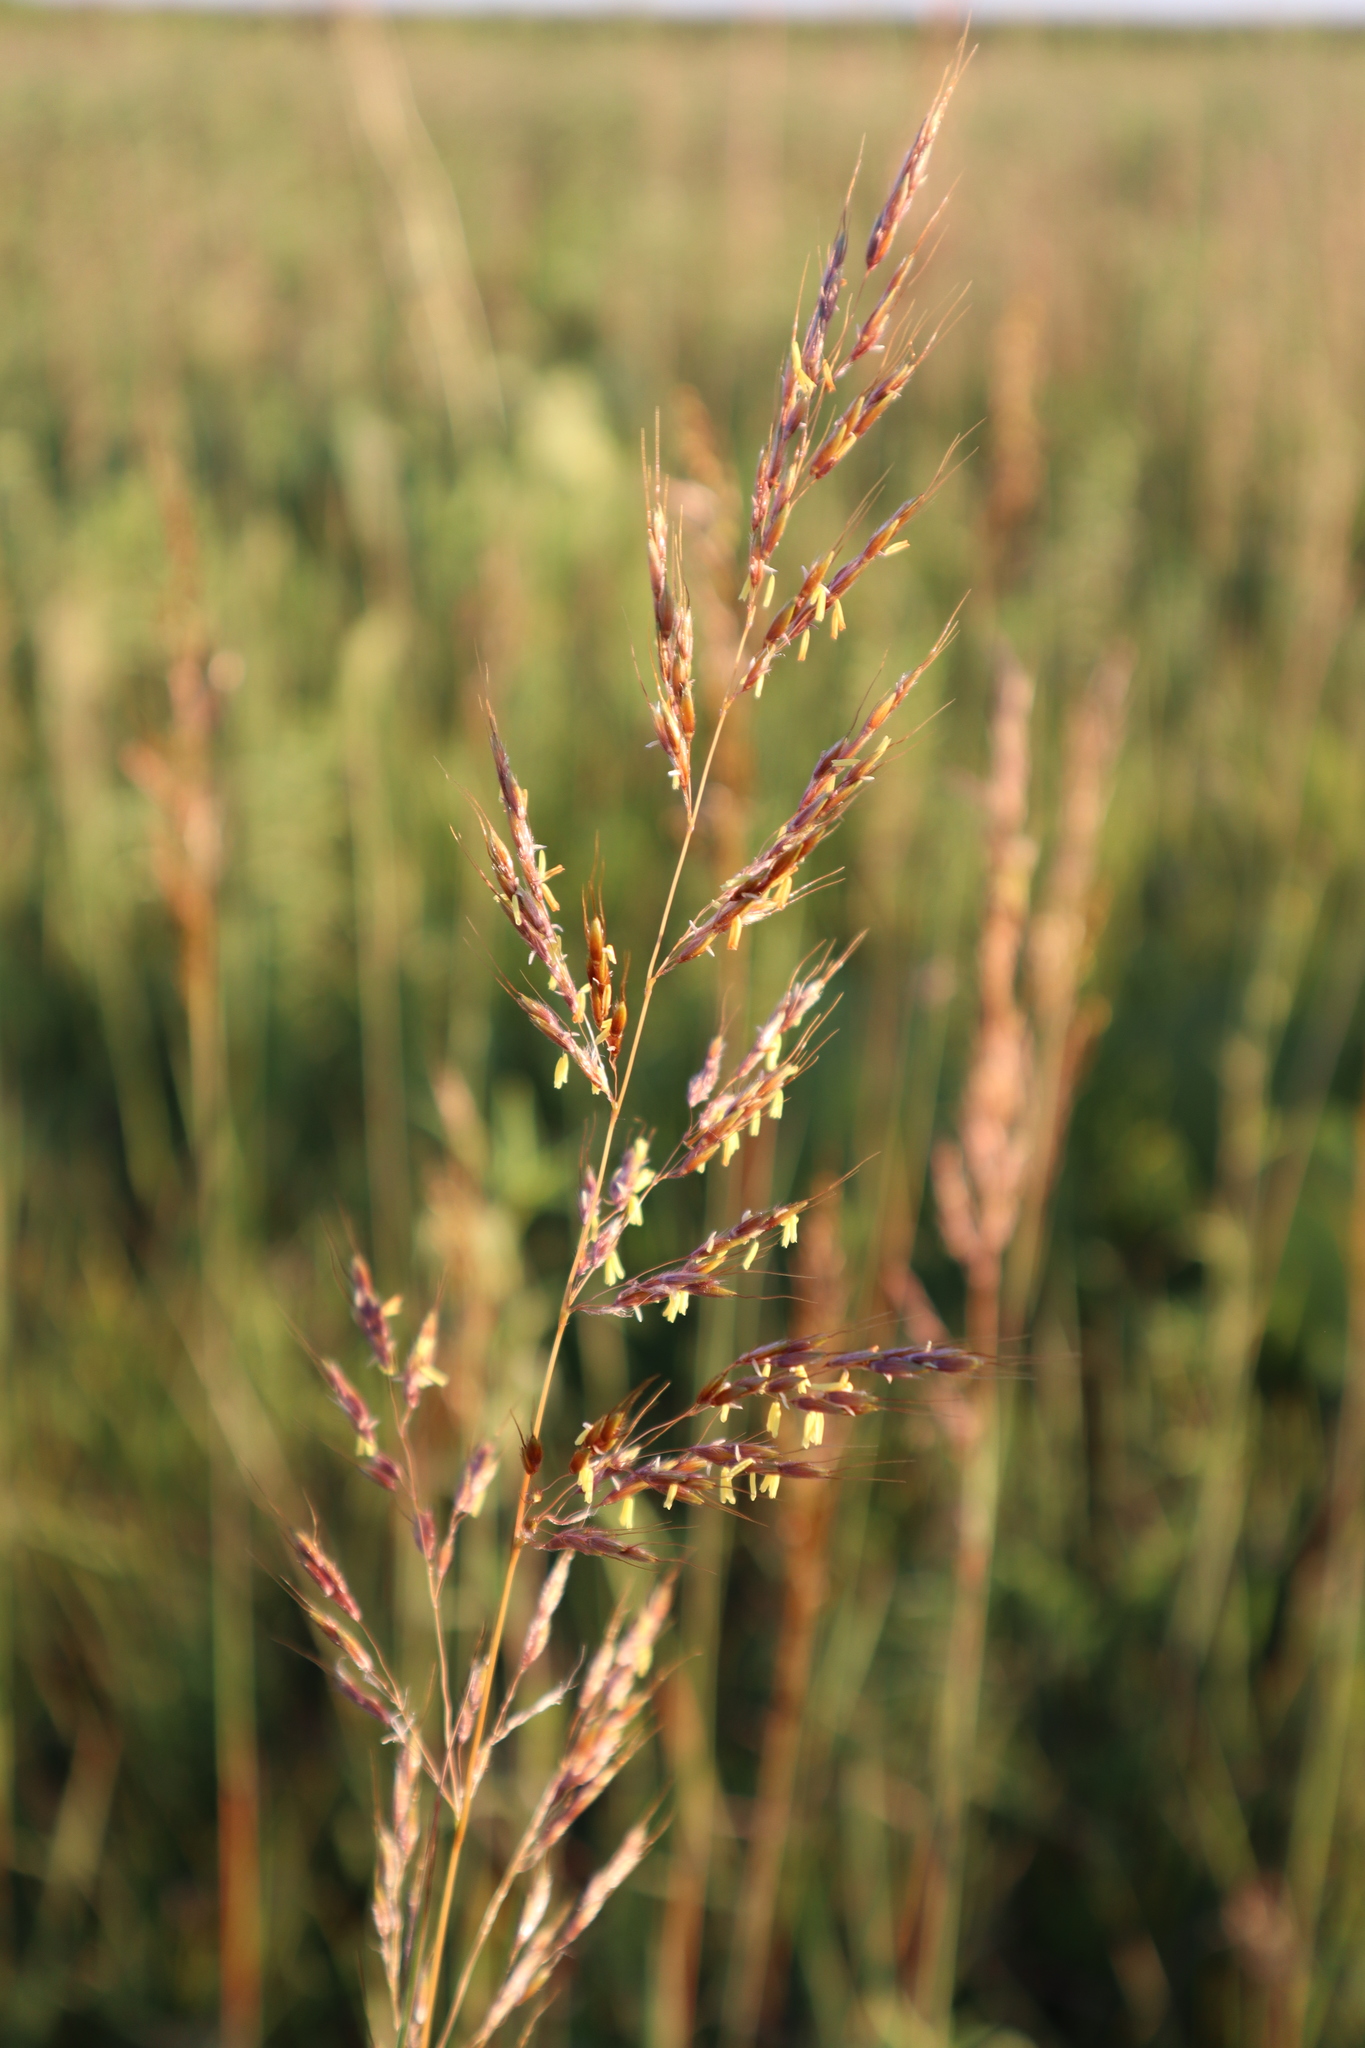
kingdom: Plantae
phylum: Tracheophyta
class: Liliopsida
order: Poales
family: Poaceae
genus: Sorghastrum
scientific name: Sorghastrum nutans
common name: Indian grass
